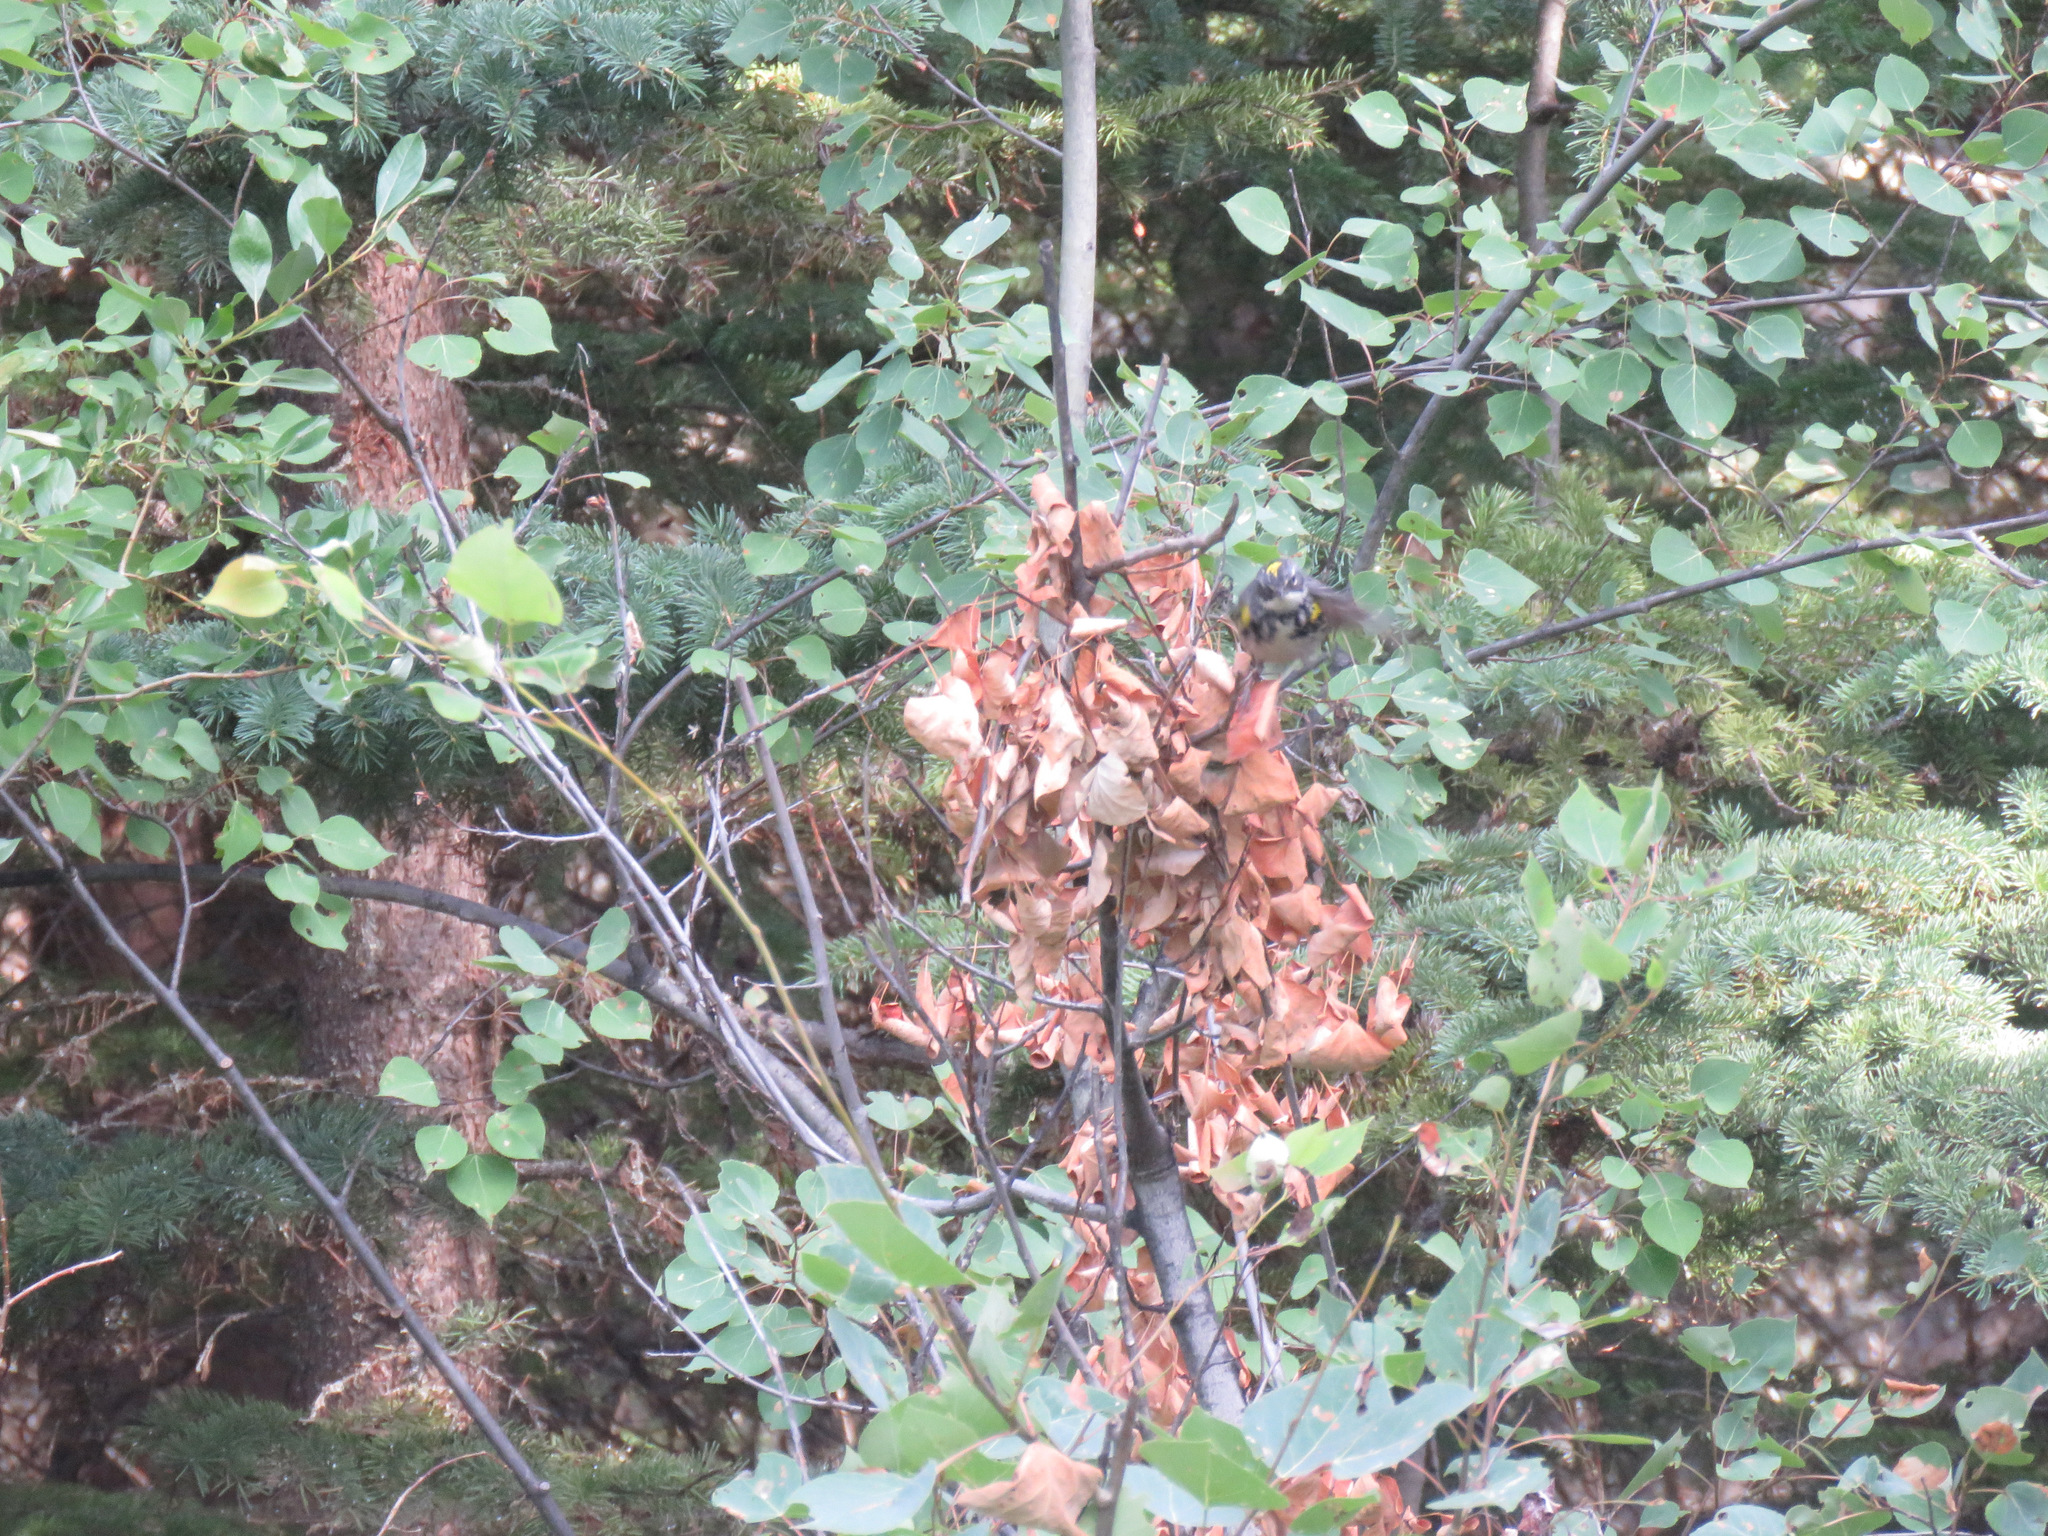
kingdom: Animalia
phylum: Chordata
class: Aves
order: Passeriformes
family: Parulidae
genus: Setophaga
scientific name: Setophaga coronata
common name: Myrtle warbler
